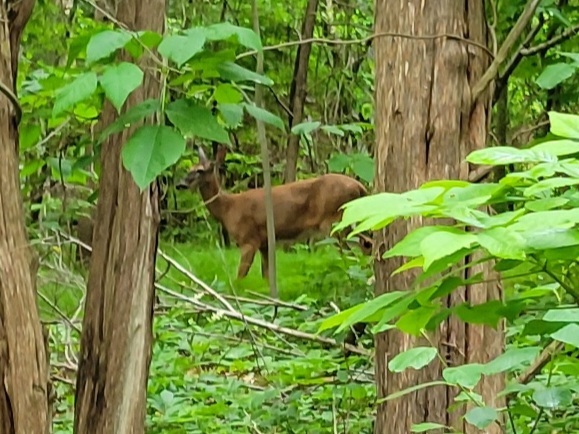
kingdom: Animalia
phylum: Chordata
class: Mammalia
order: Artiodactyla
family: Cervidae
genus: Odocoileus
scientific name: Odocoileus virginianus
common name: White-tailed deer
